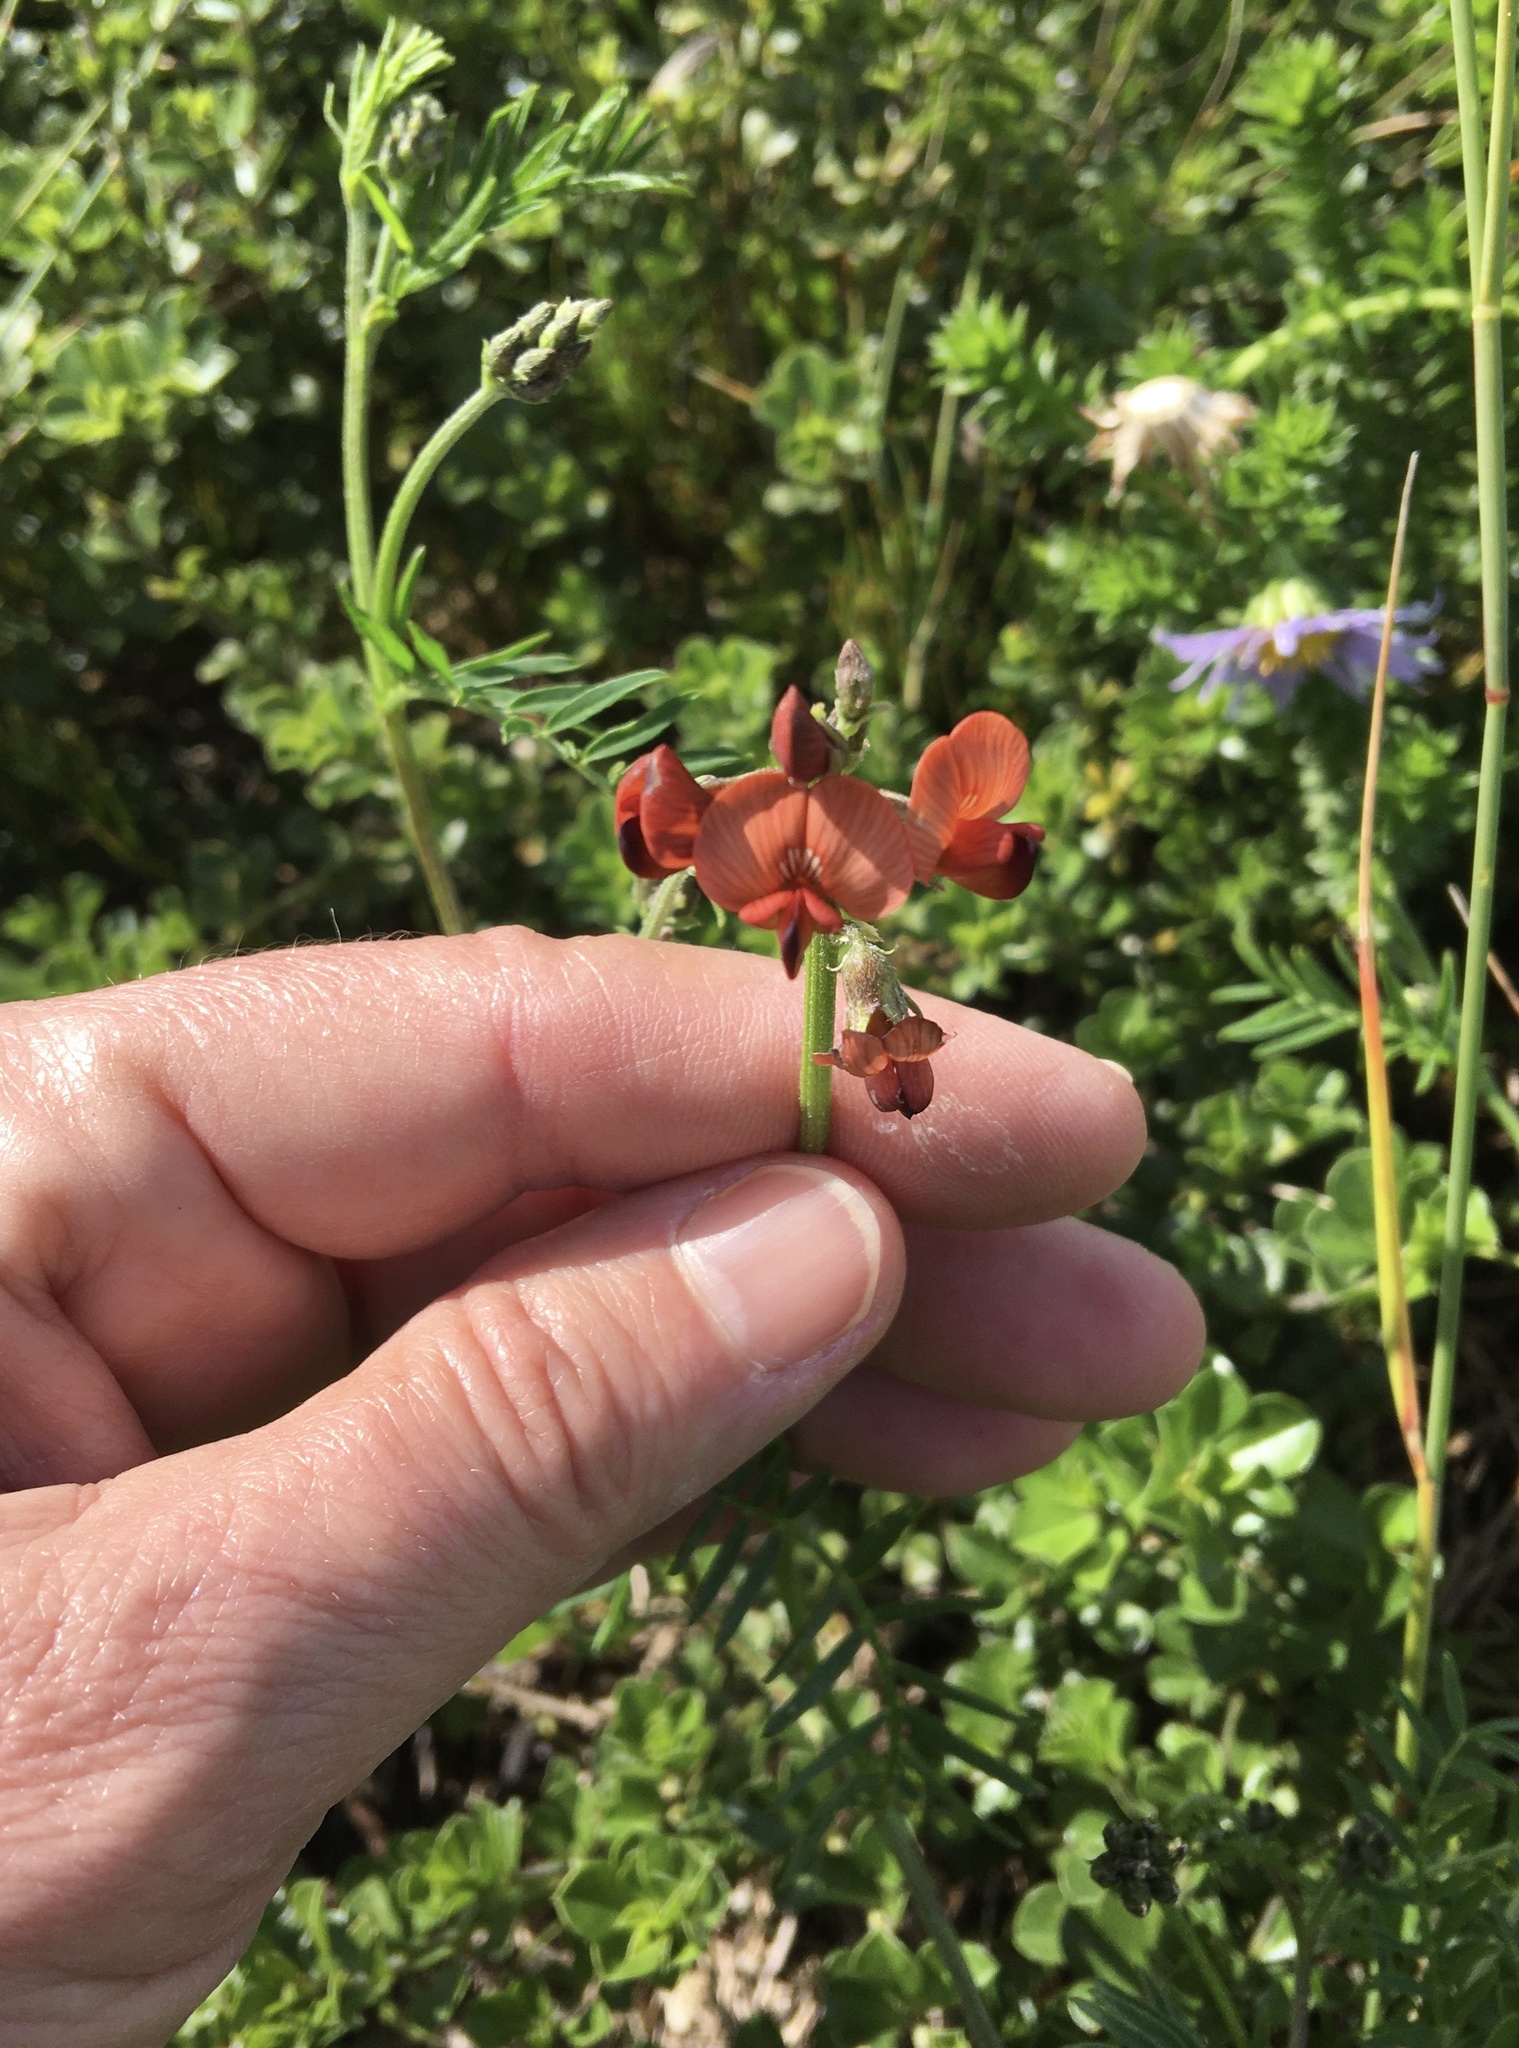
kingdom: Plantae
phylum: Tracheophyta
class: Magnoliopsida
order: Fabales
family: Fabaceae
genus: Lessertia
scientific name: Lessertia miniata
